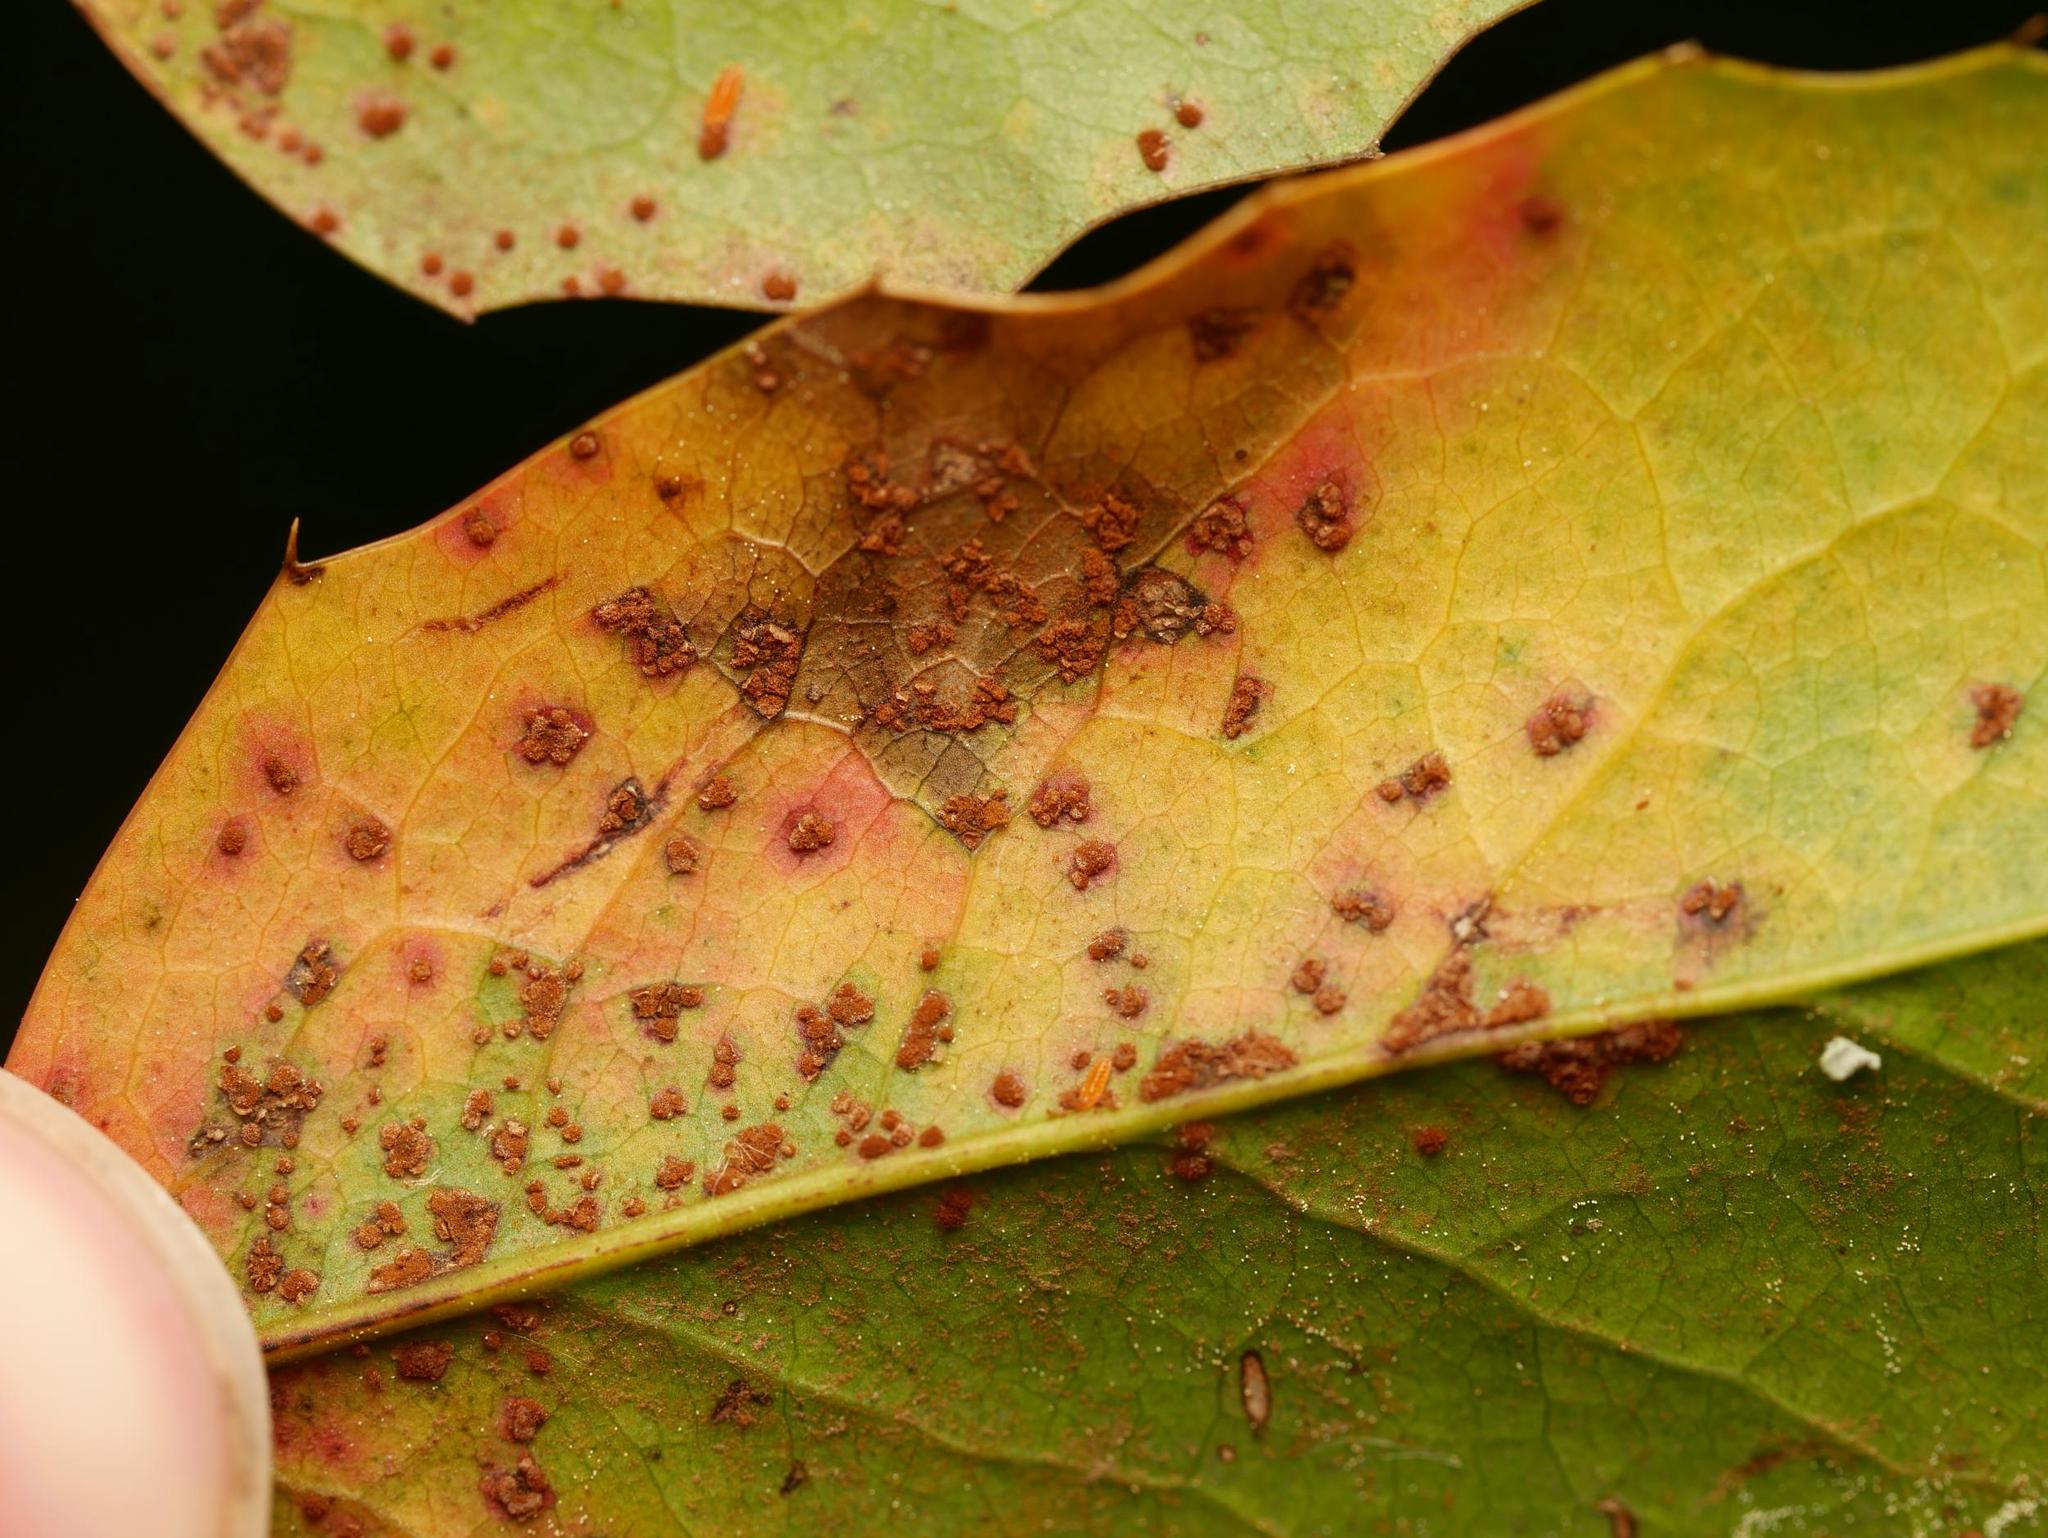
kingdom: Fungi
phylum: Basidiomycota
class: Pucciniomycetes
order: Pucciniales
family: Pucciniaceae
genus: Cumminsiella
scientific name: Cumminsiella mirabilissima
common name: Mahonia rust
